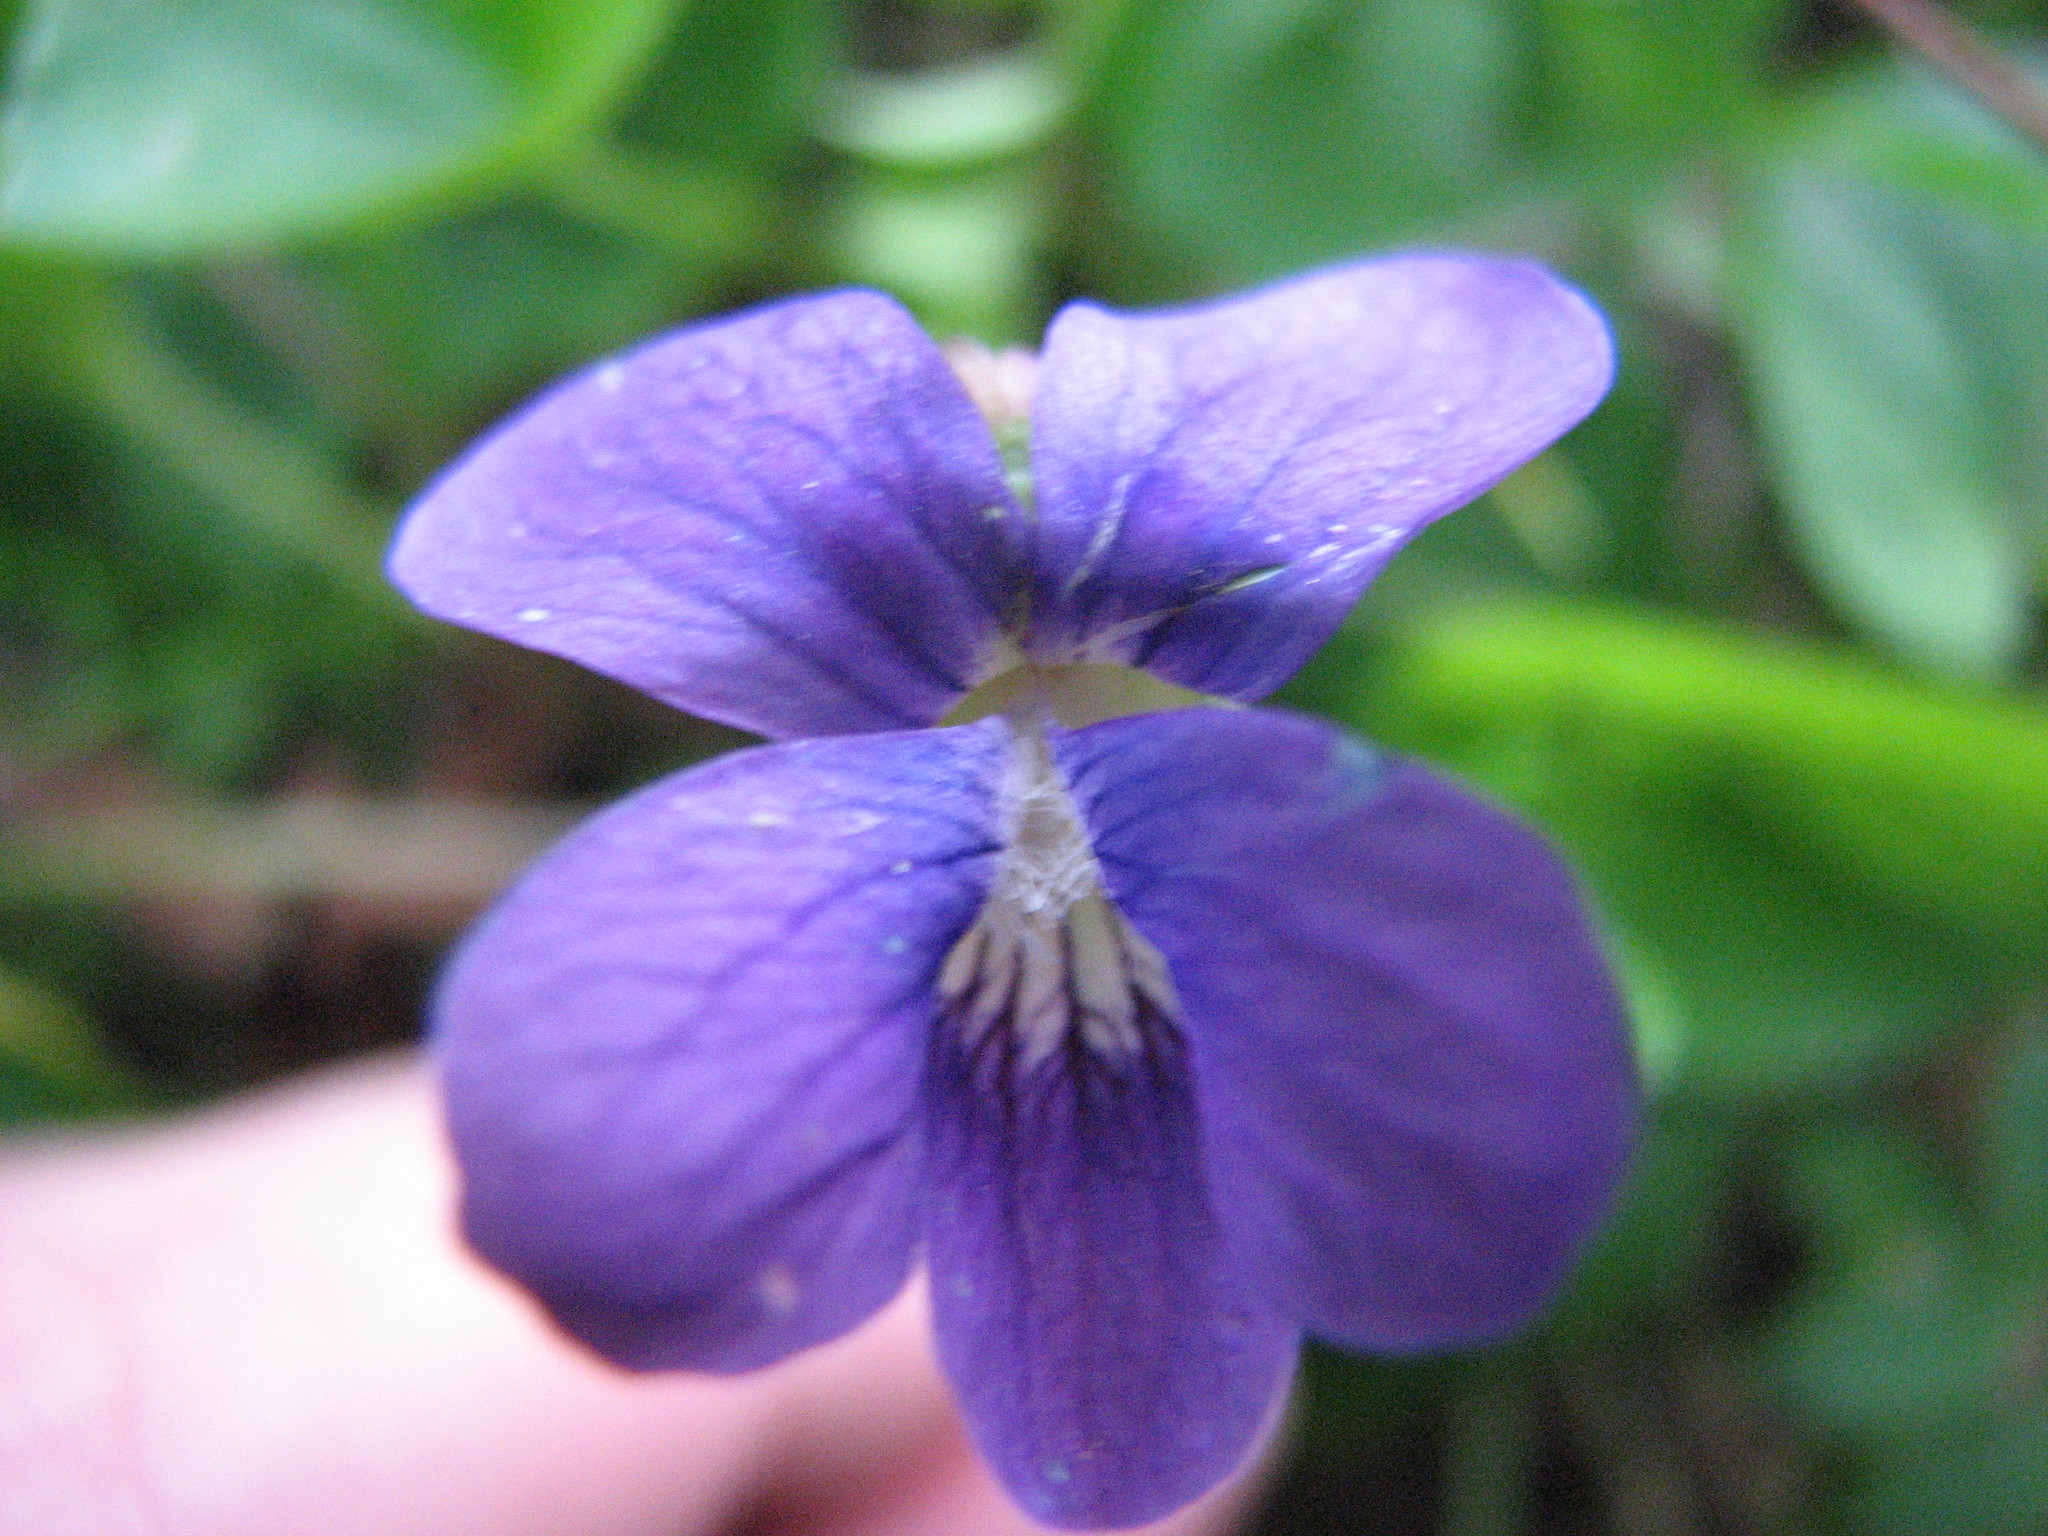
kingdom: Plantae
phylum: Tracheophyta
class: Magnoliopsida
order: Malpighiales
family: Violaceae
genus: Viola
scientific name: Viola sororia
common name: Dooryard violet
